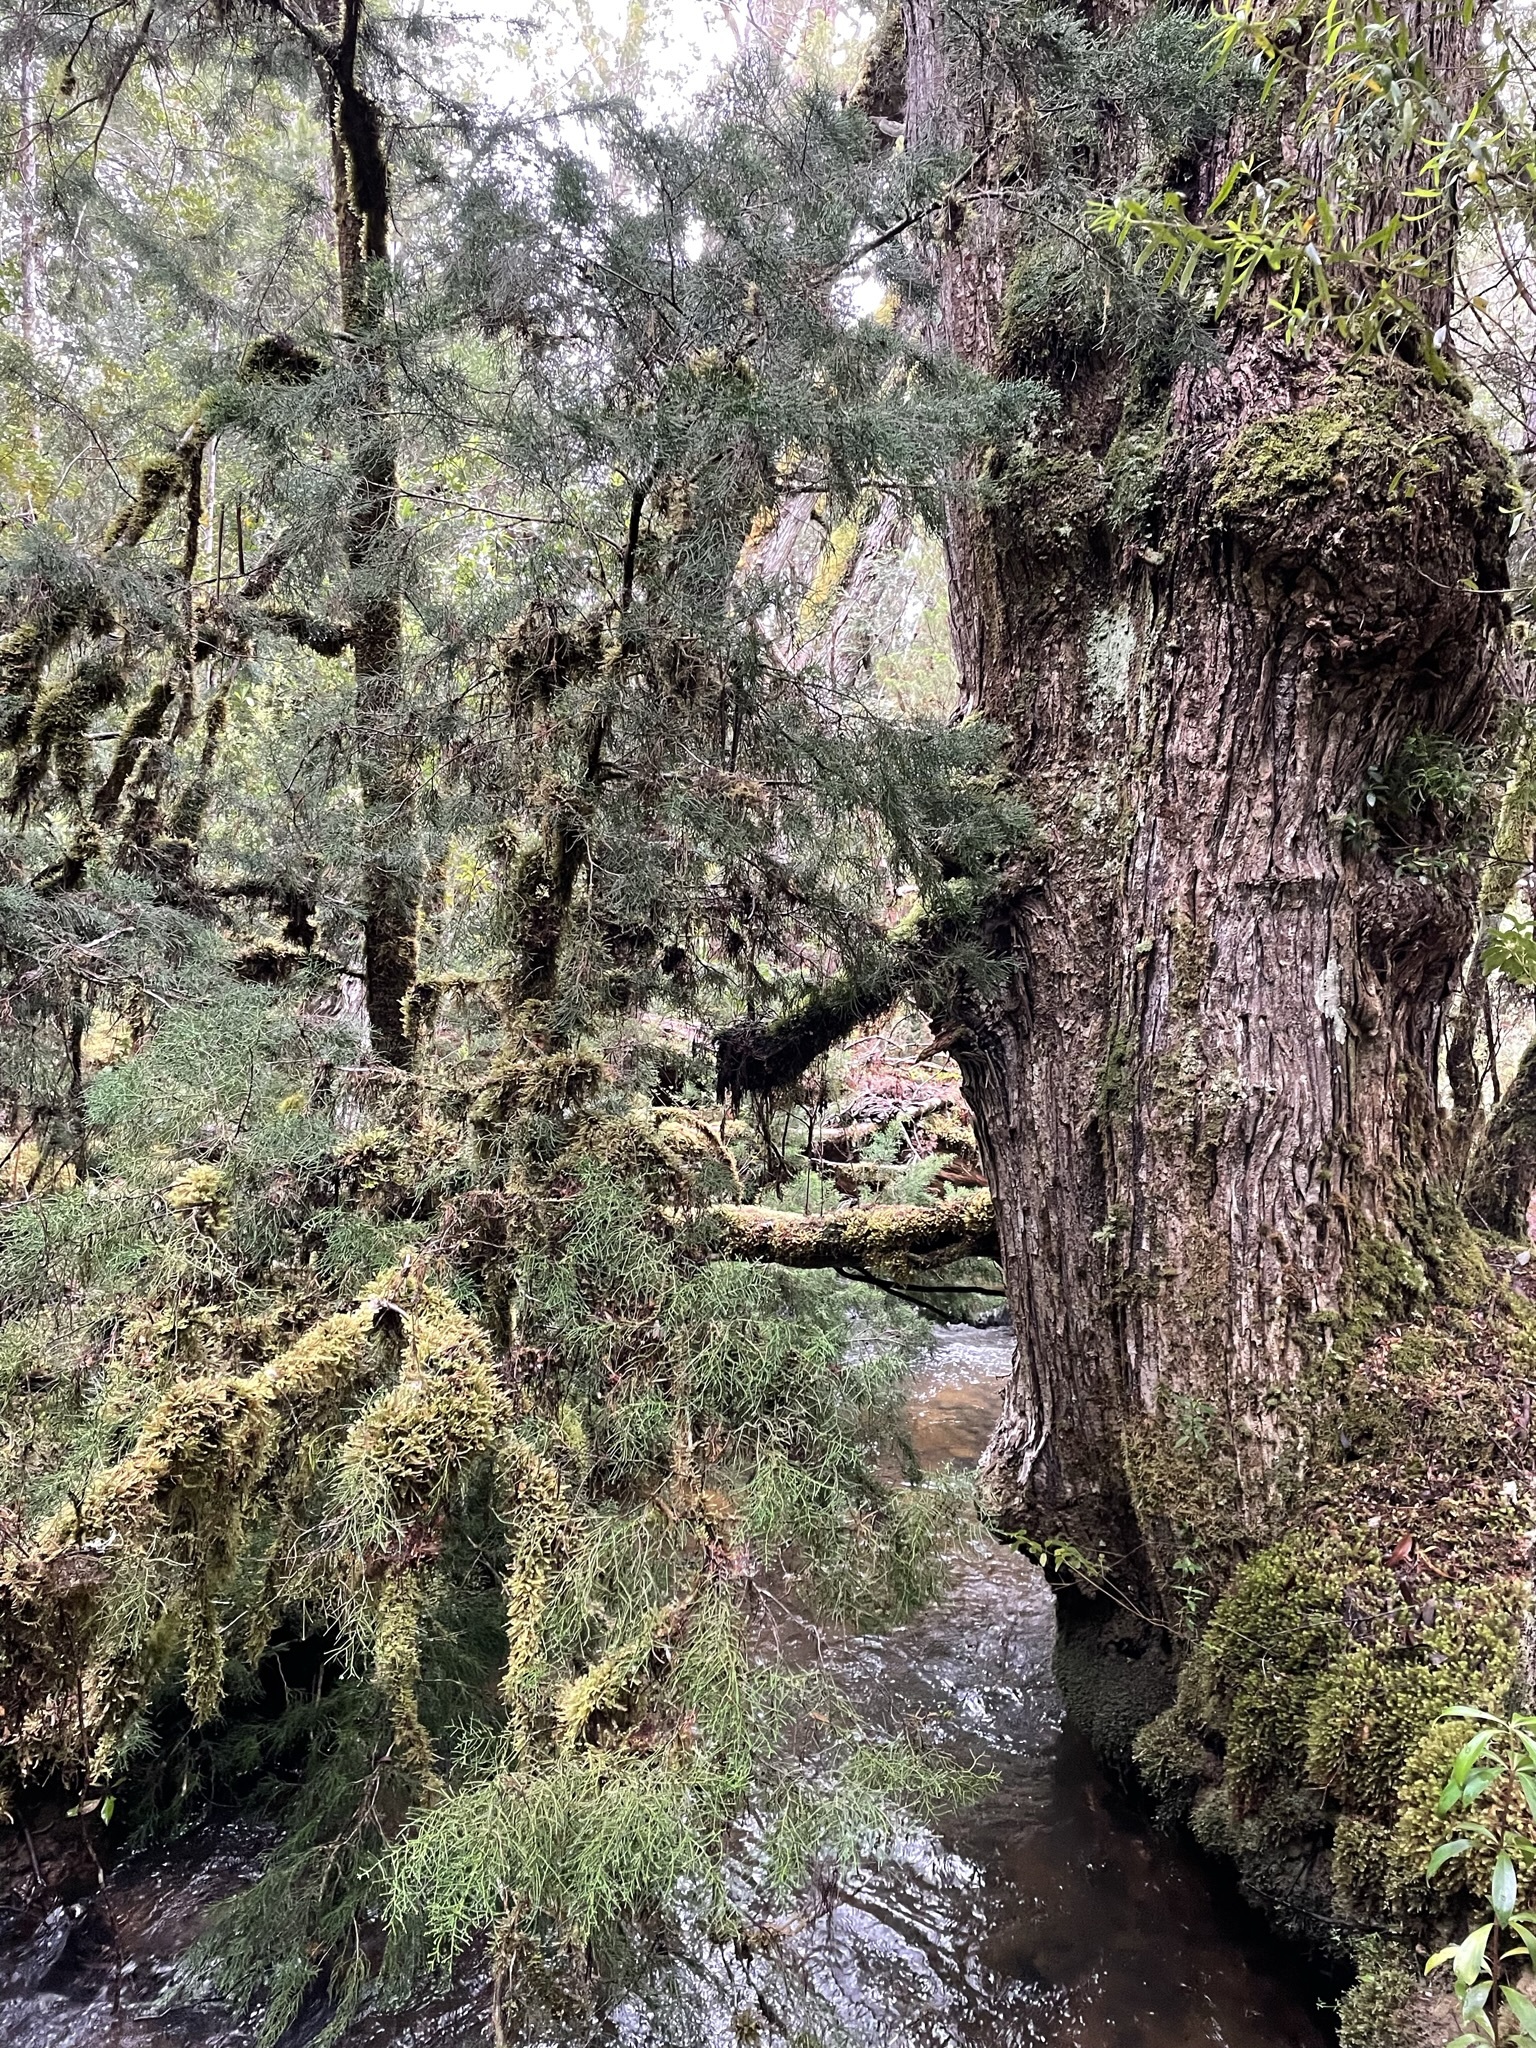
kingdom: Plantae
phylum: Tracheophyta
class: Pinopsida
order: Pinales
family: Podocarpaceae
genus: Lagarostrobos
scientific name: Lagarostrobos franklinii
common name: Huon pine
